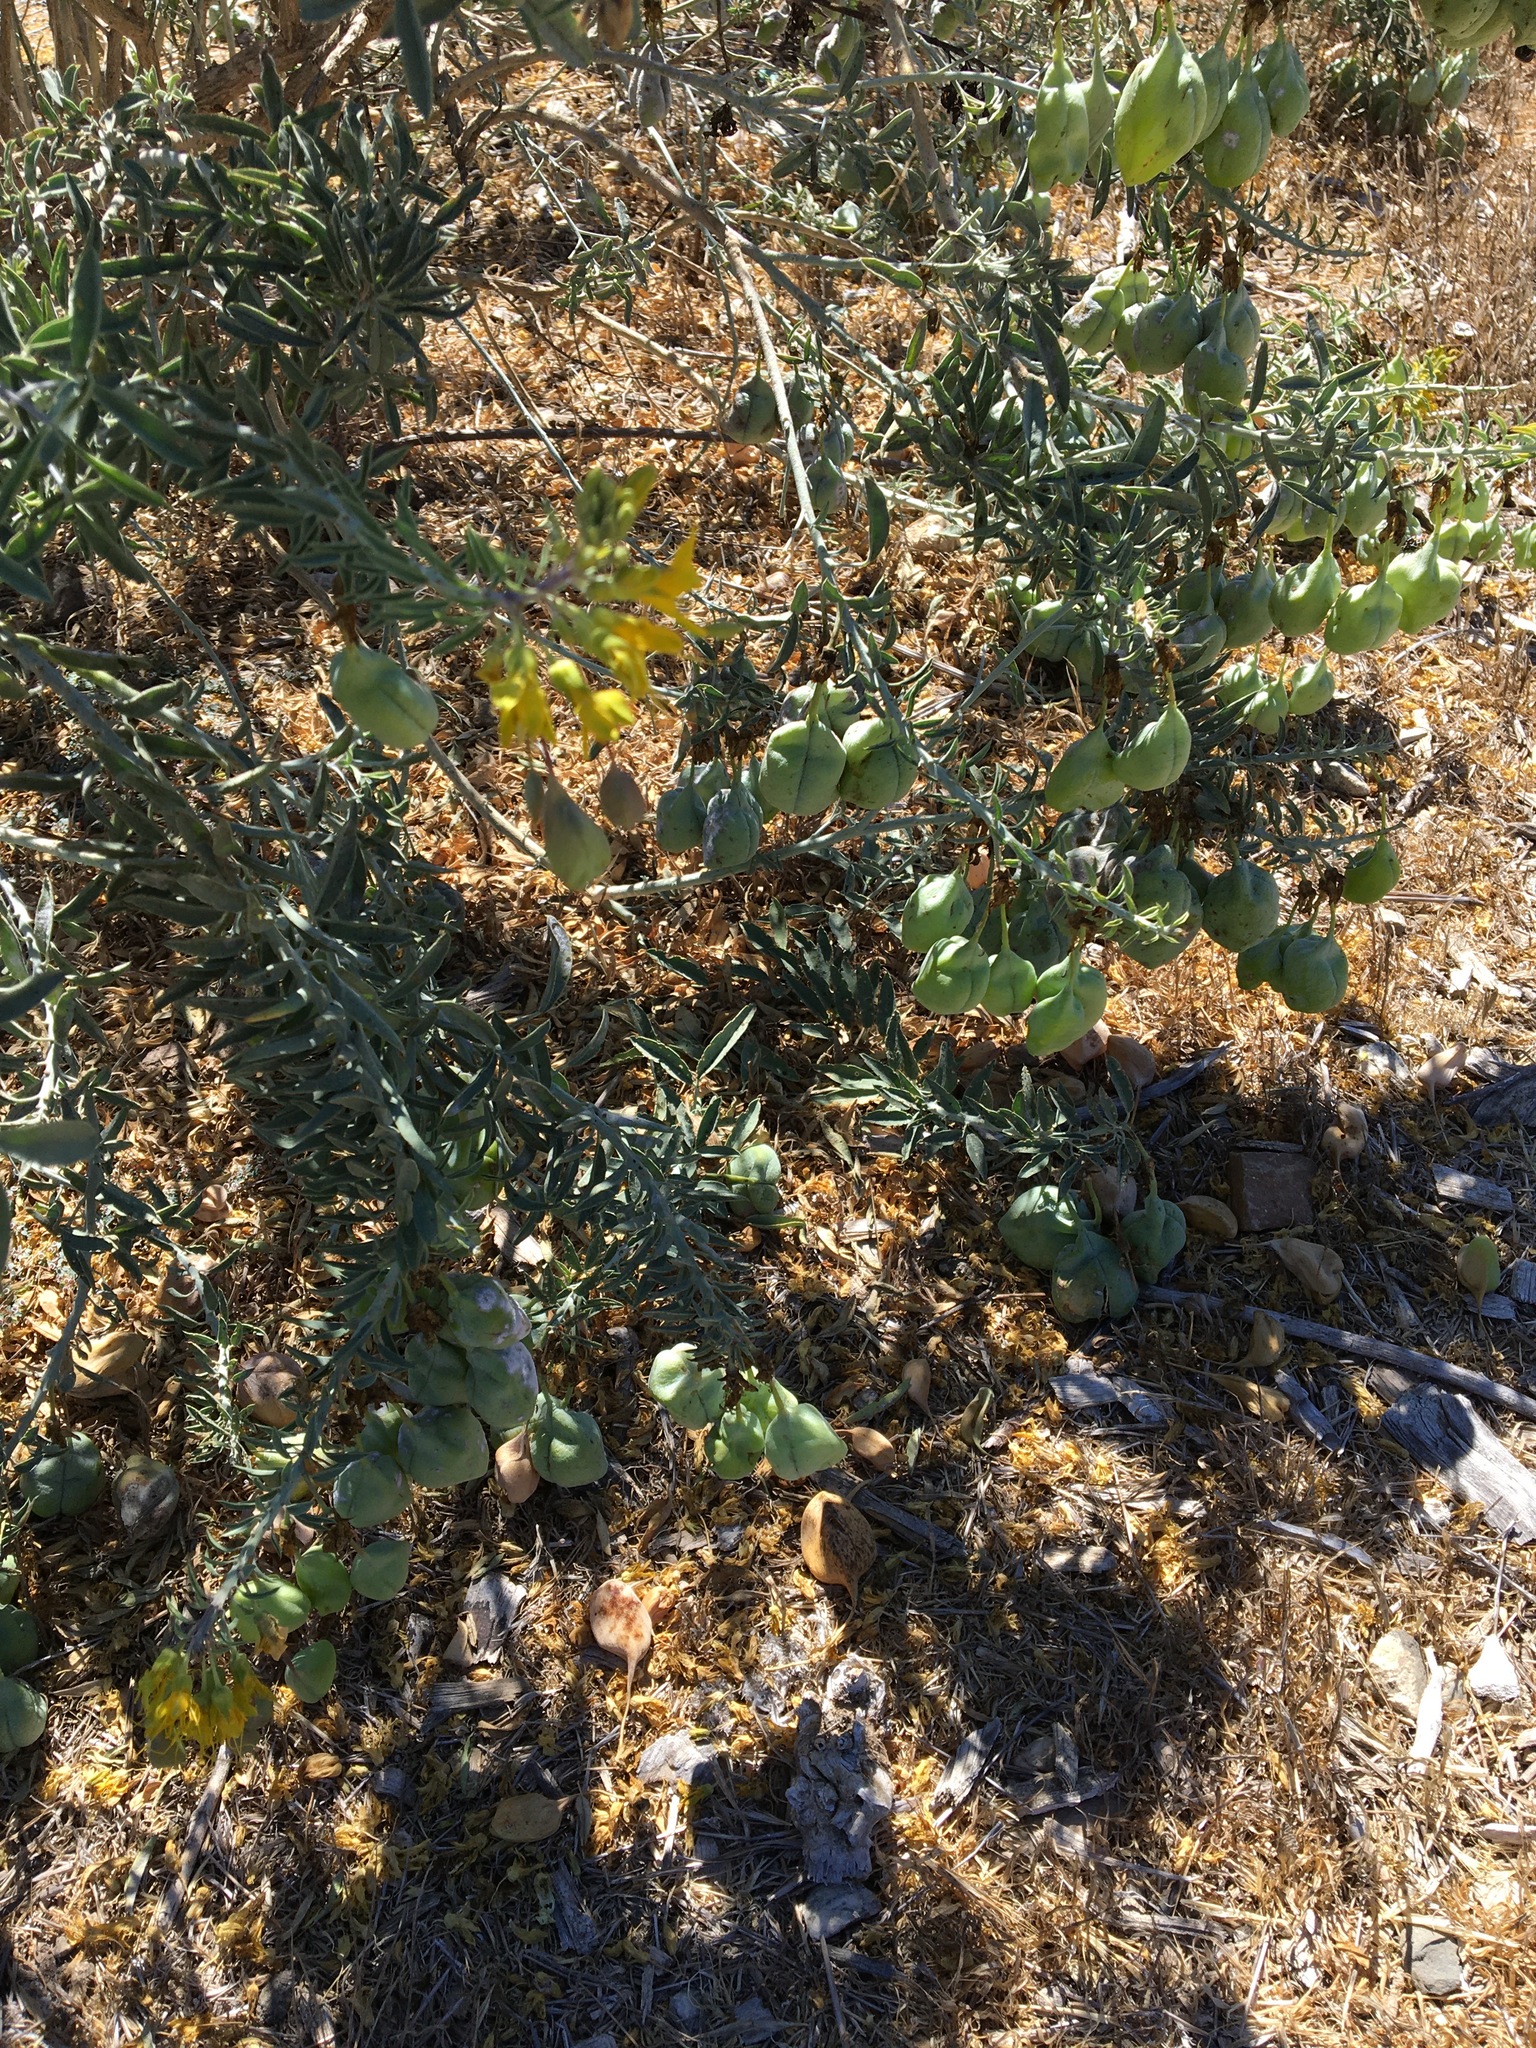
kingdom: Plantae
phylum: Tracheophyta
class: Magnoliopsida
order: Brassicales
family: Cleomaceae
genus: Cleomella
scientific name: Cleomella arborea
